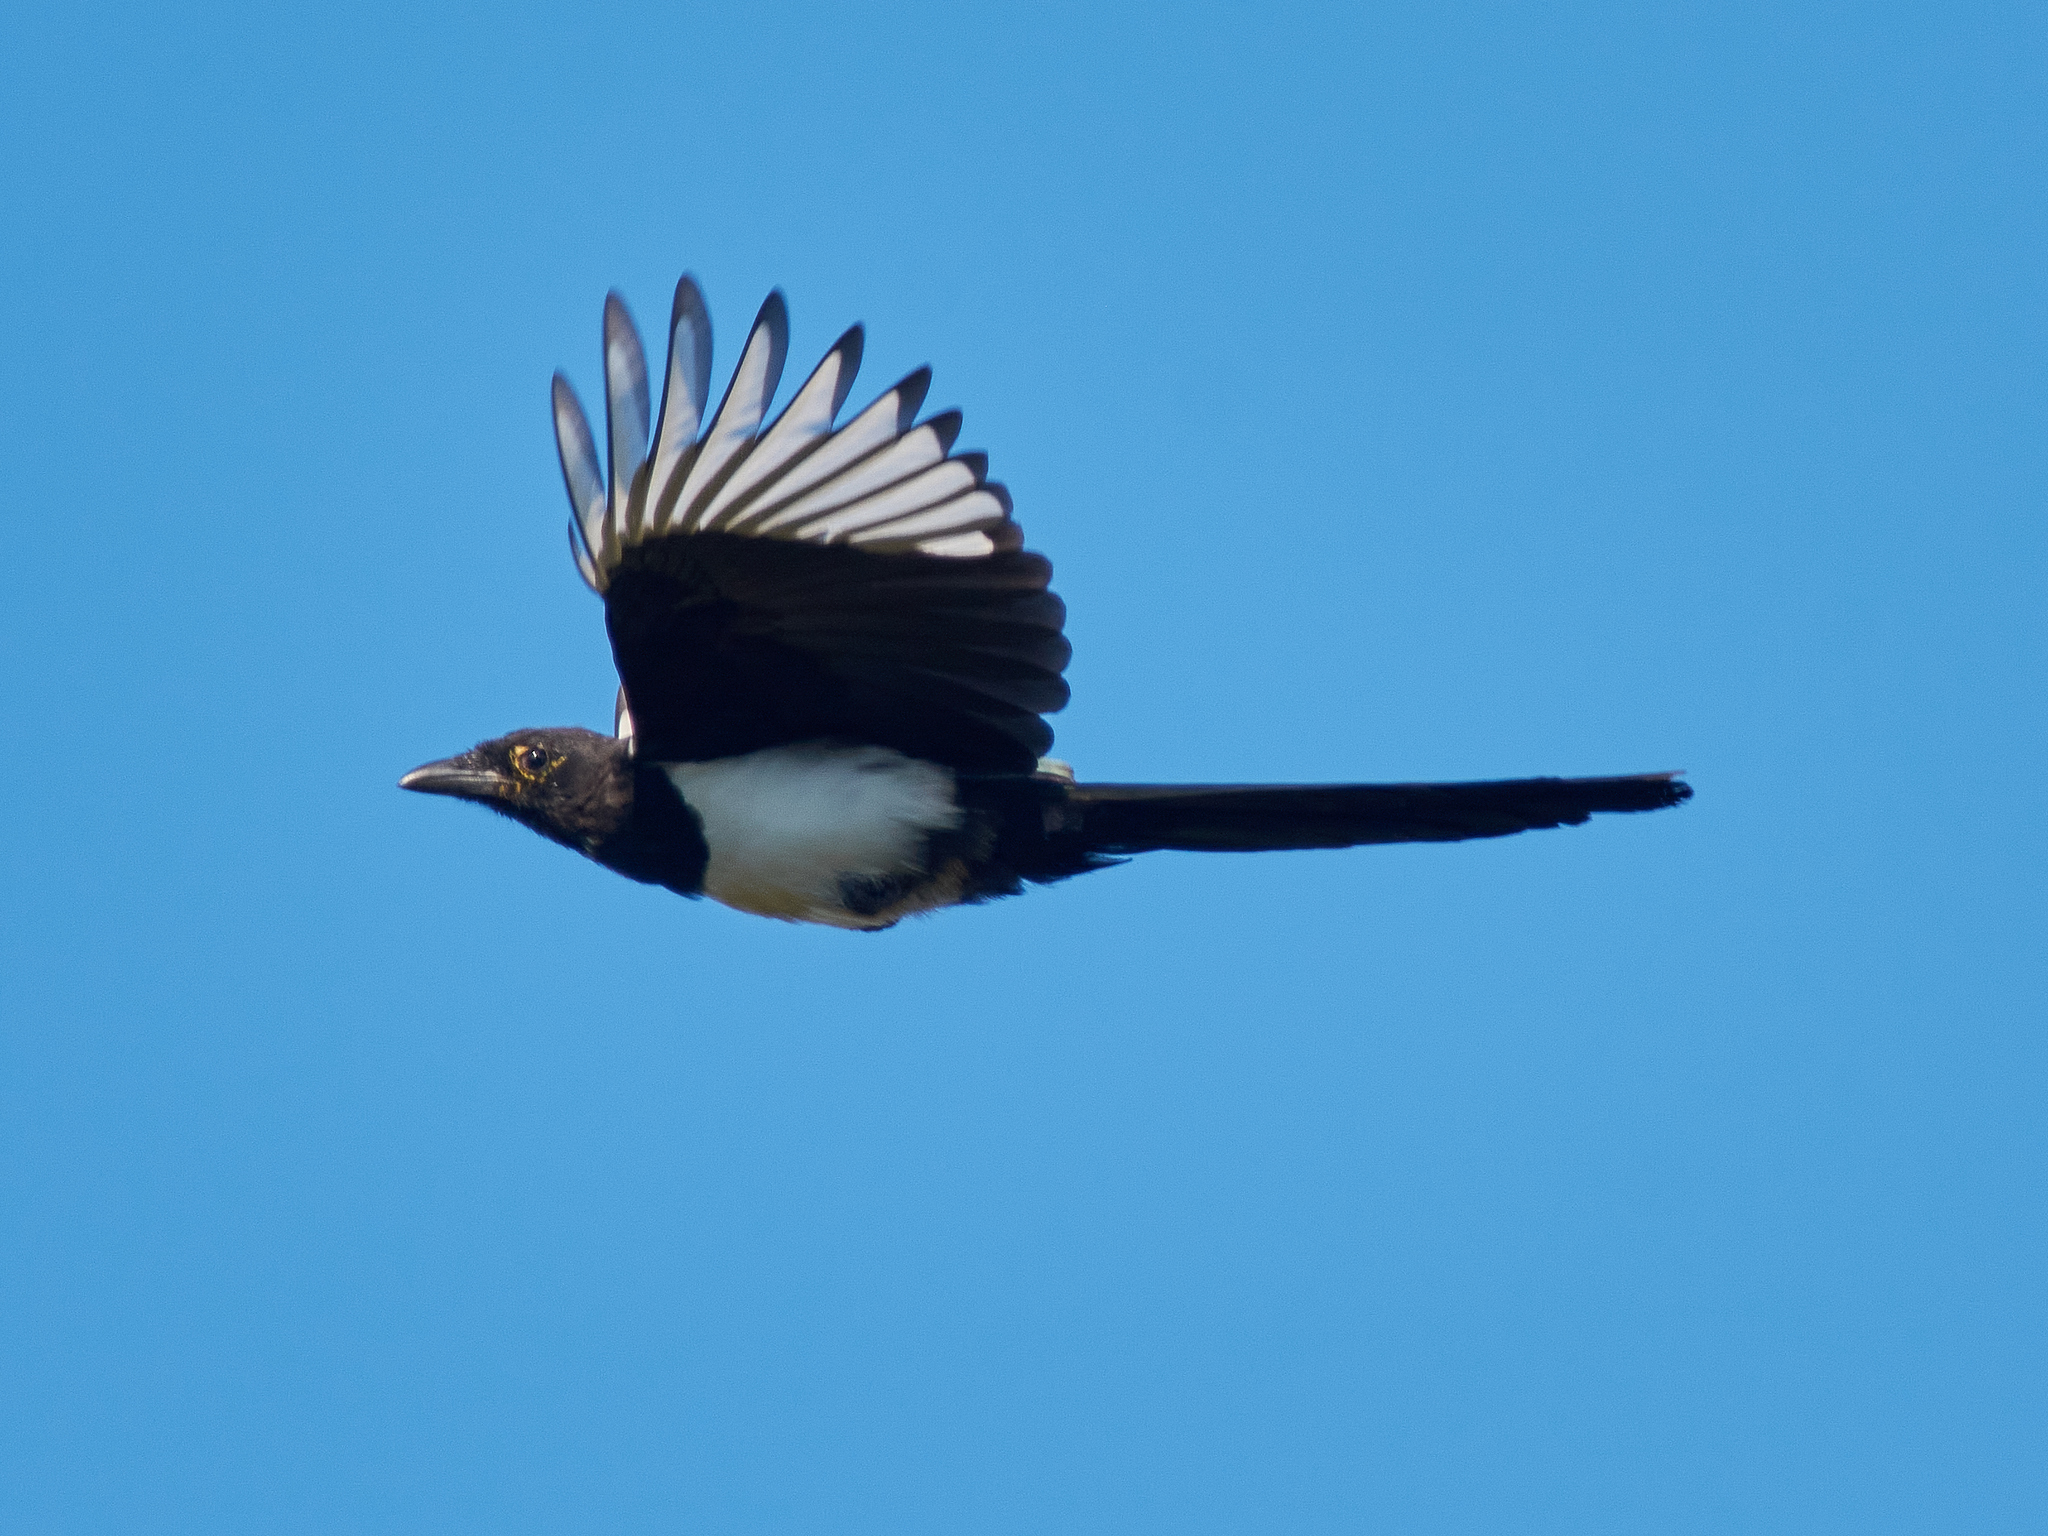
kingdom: Animalia
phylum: Chordata
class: Aves
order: Passeriformes
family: Corvidae
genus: Pica
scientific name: Pica pica
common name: Eurasian magpie
